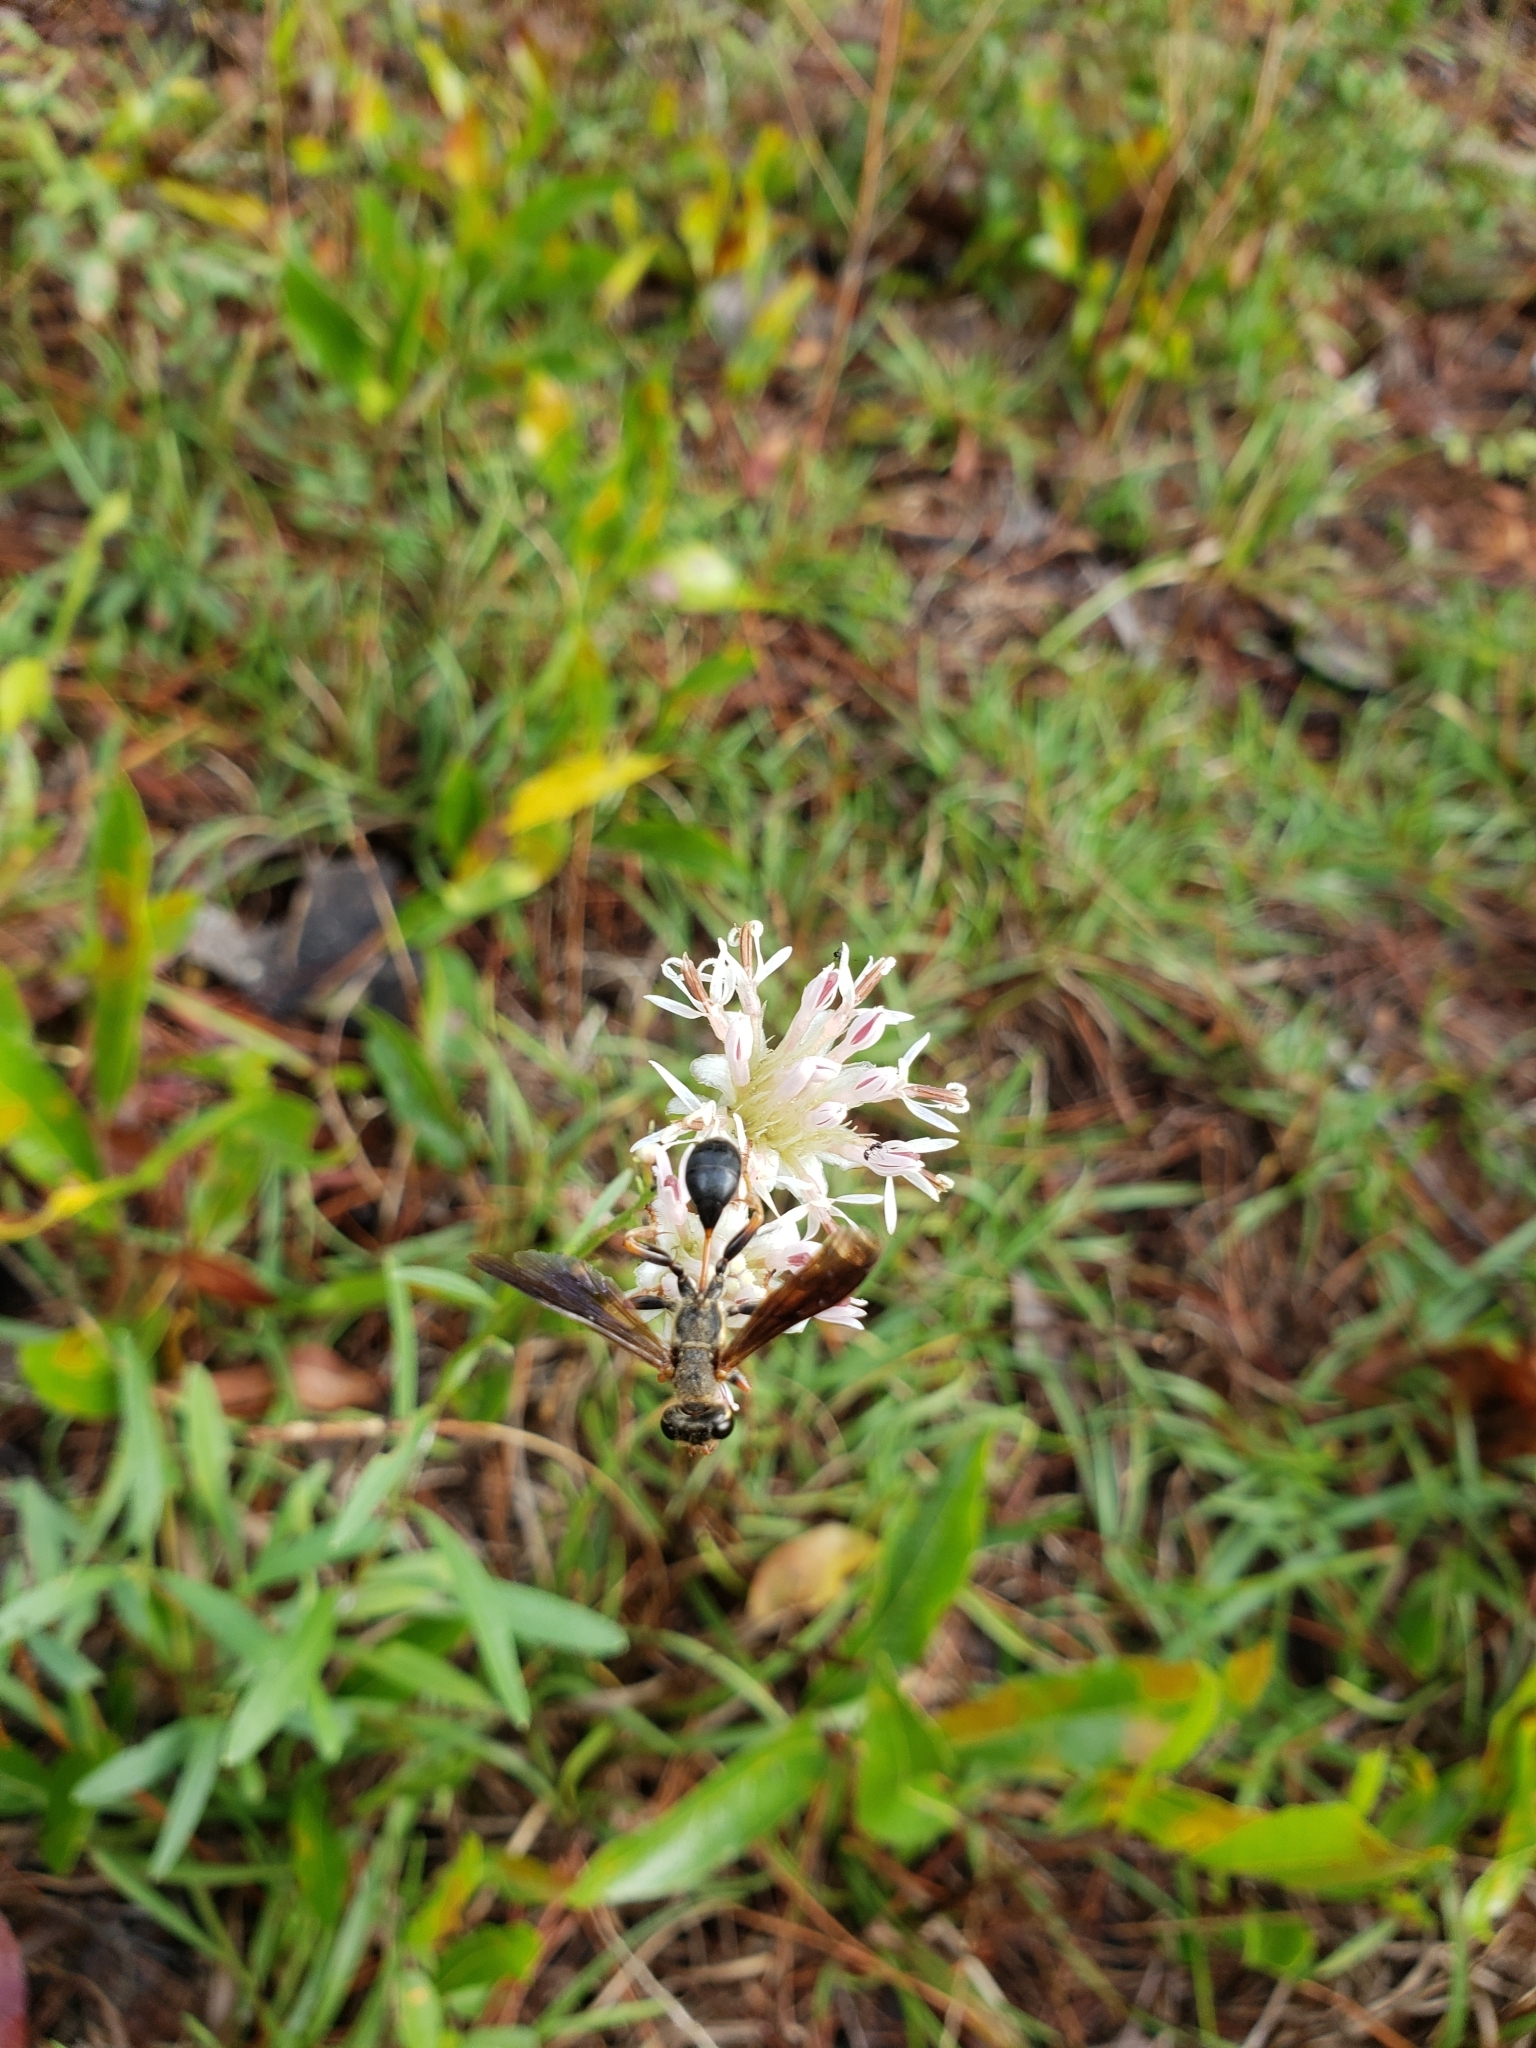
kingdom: Animalia
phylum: Arthropoda
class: Insecta
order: Hymenoptera
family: Sphecidae
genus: Isodontia
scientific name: Isodontia exornata
